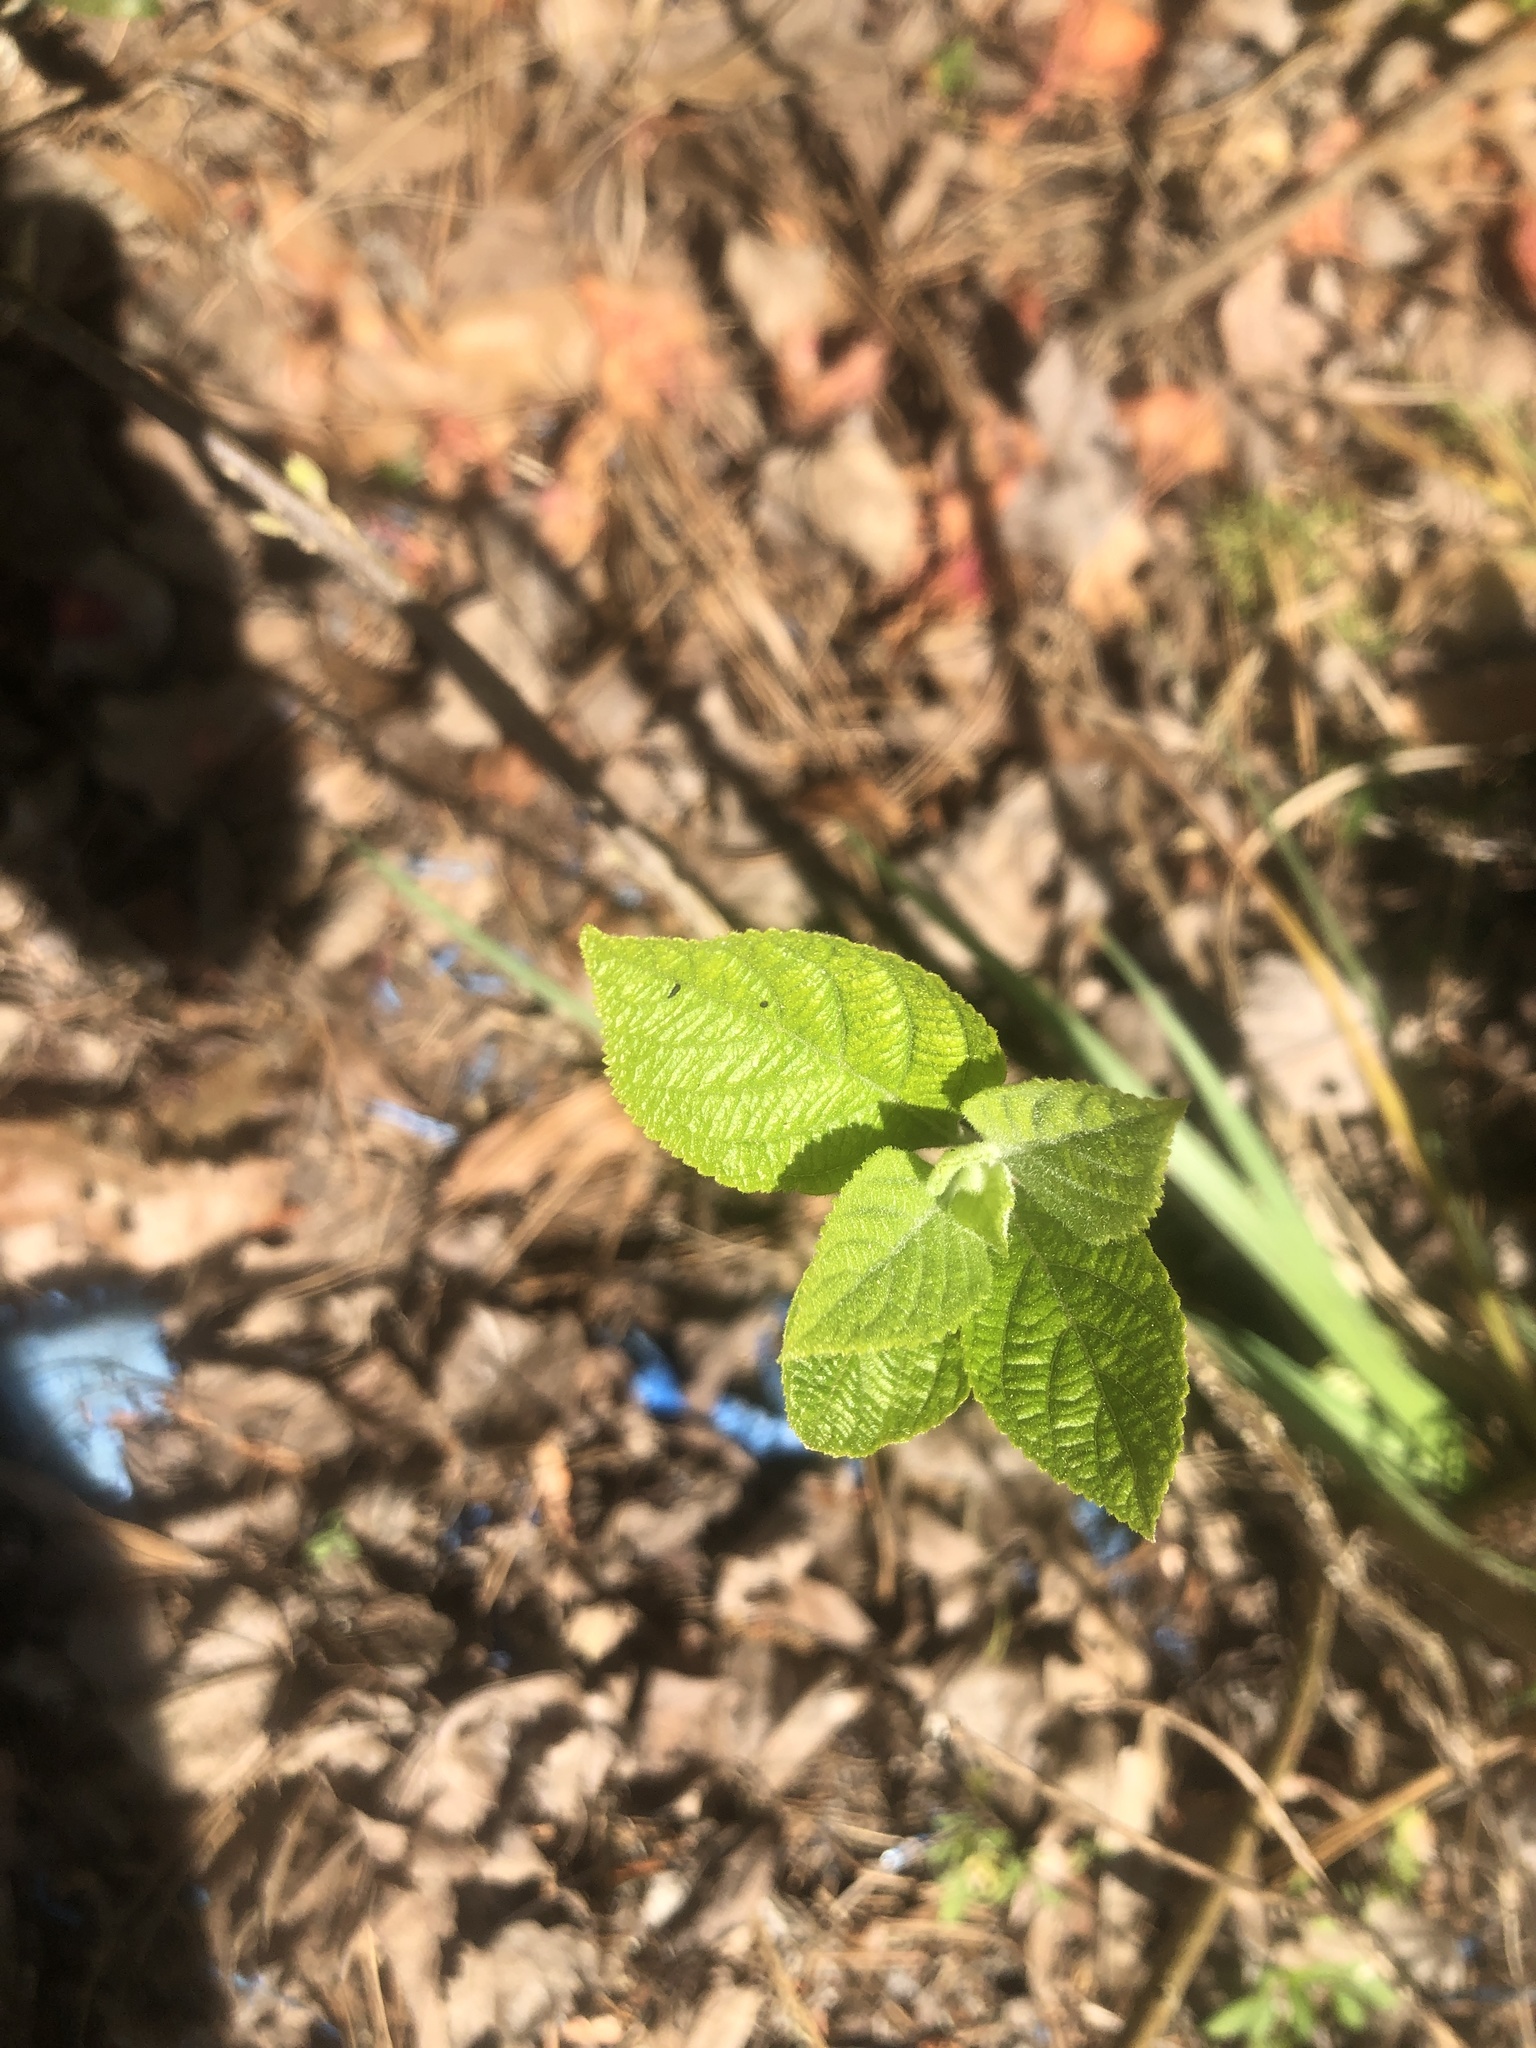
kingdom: Plantae
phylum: Tracheophyta
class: Magnoliopsida
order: Lamiales
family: Lamiaceae
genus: Callicarpa
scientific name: Callicarpa americana
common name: American beautyberry
